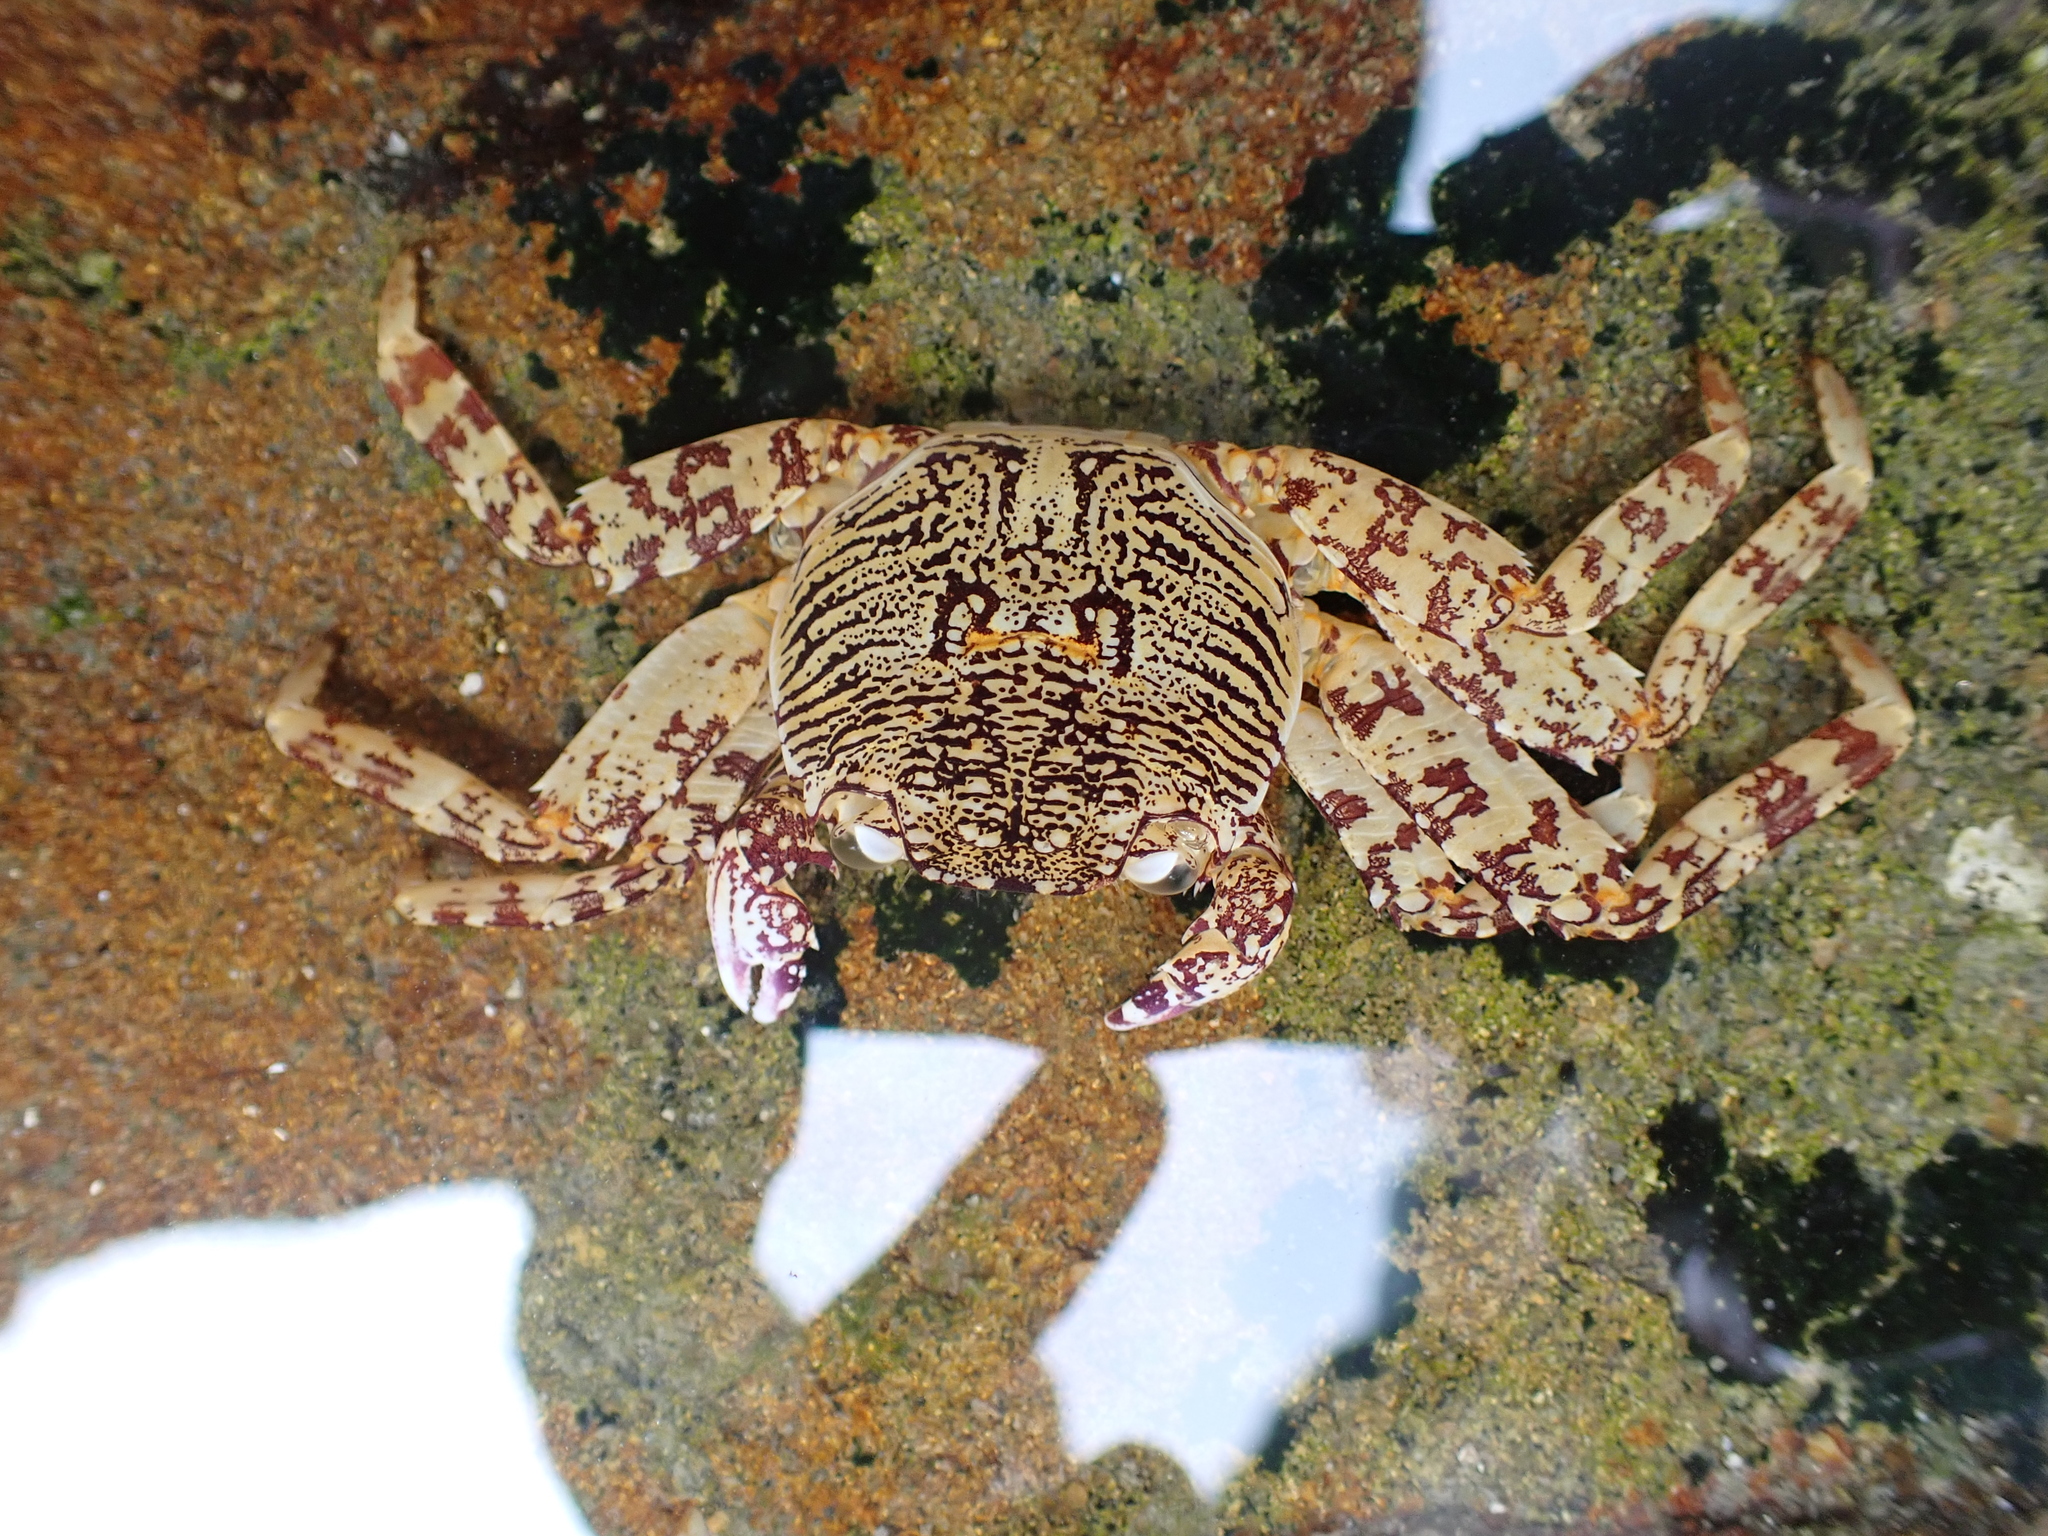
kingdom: Animalia
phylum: Arthropoda
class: Malacostraca
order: Decapoda
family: Grapsidae
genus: Grapsus
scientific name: Grapsus albolineatus
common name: Mottled lightfoot crab
